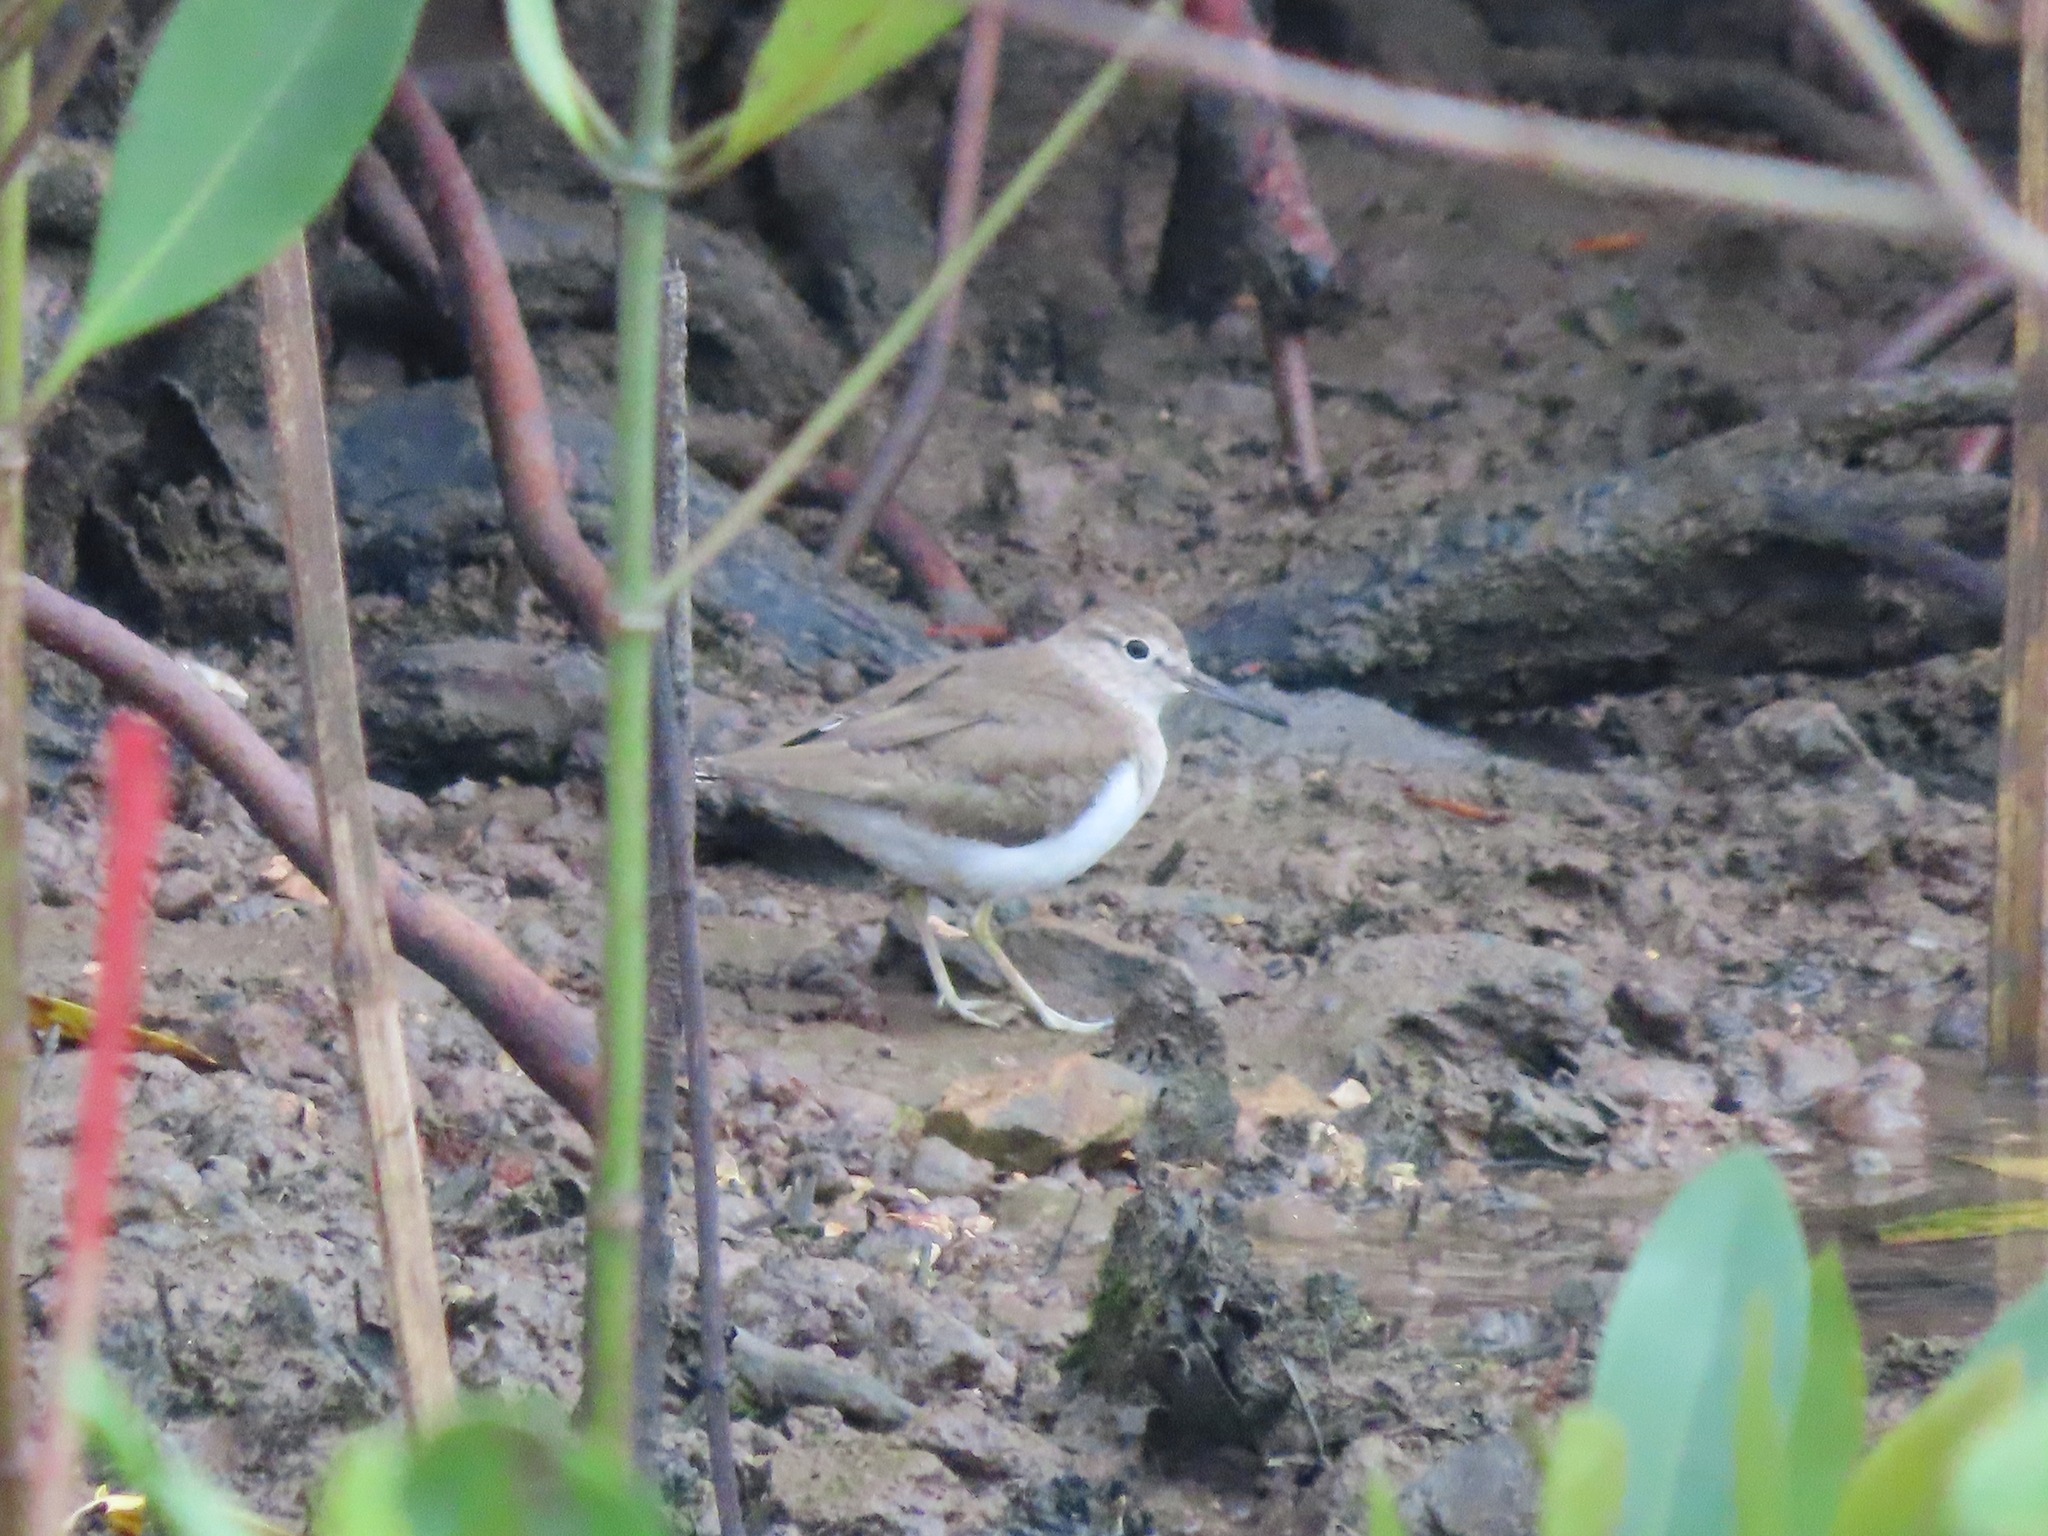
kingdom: Animalia
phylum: Chordata
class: Aves
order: Charadriiformes
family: Scolopacidae
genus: Actitis
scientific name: Actitis hypoleucos
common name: Common sandpiper
